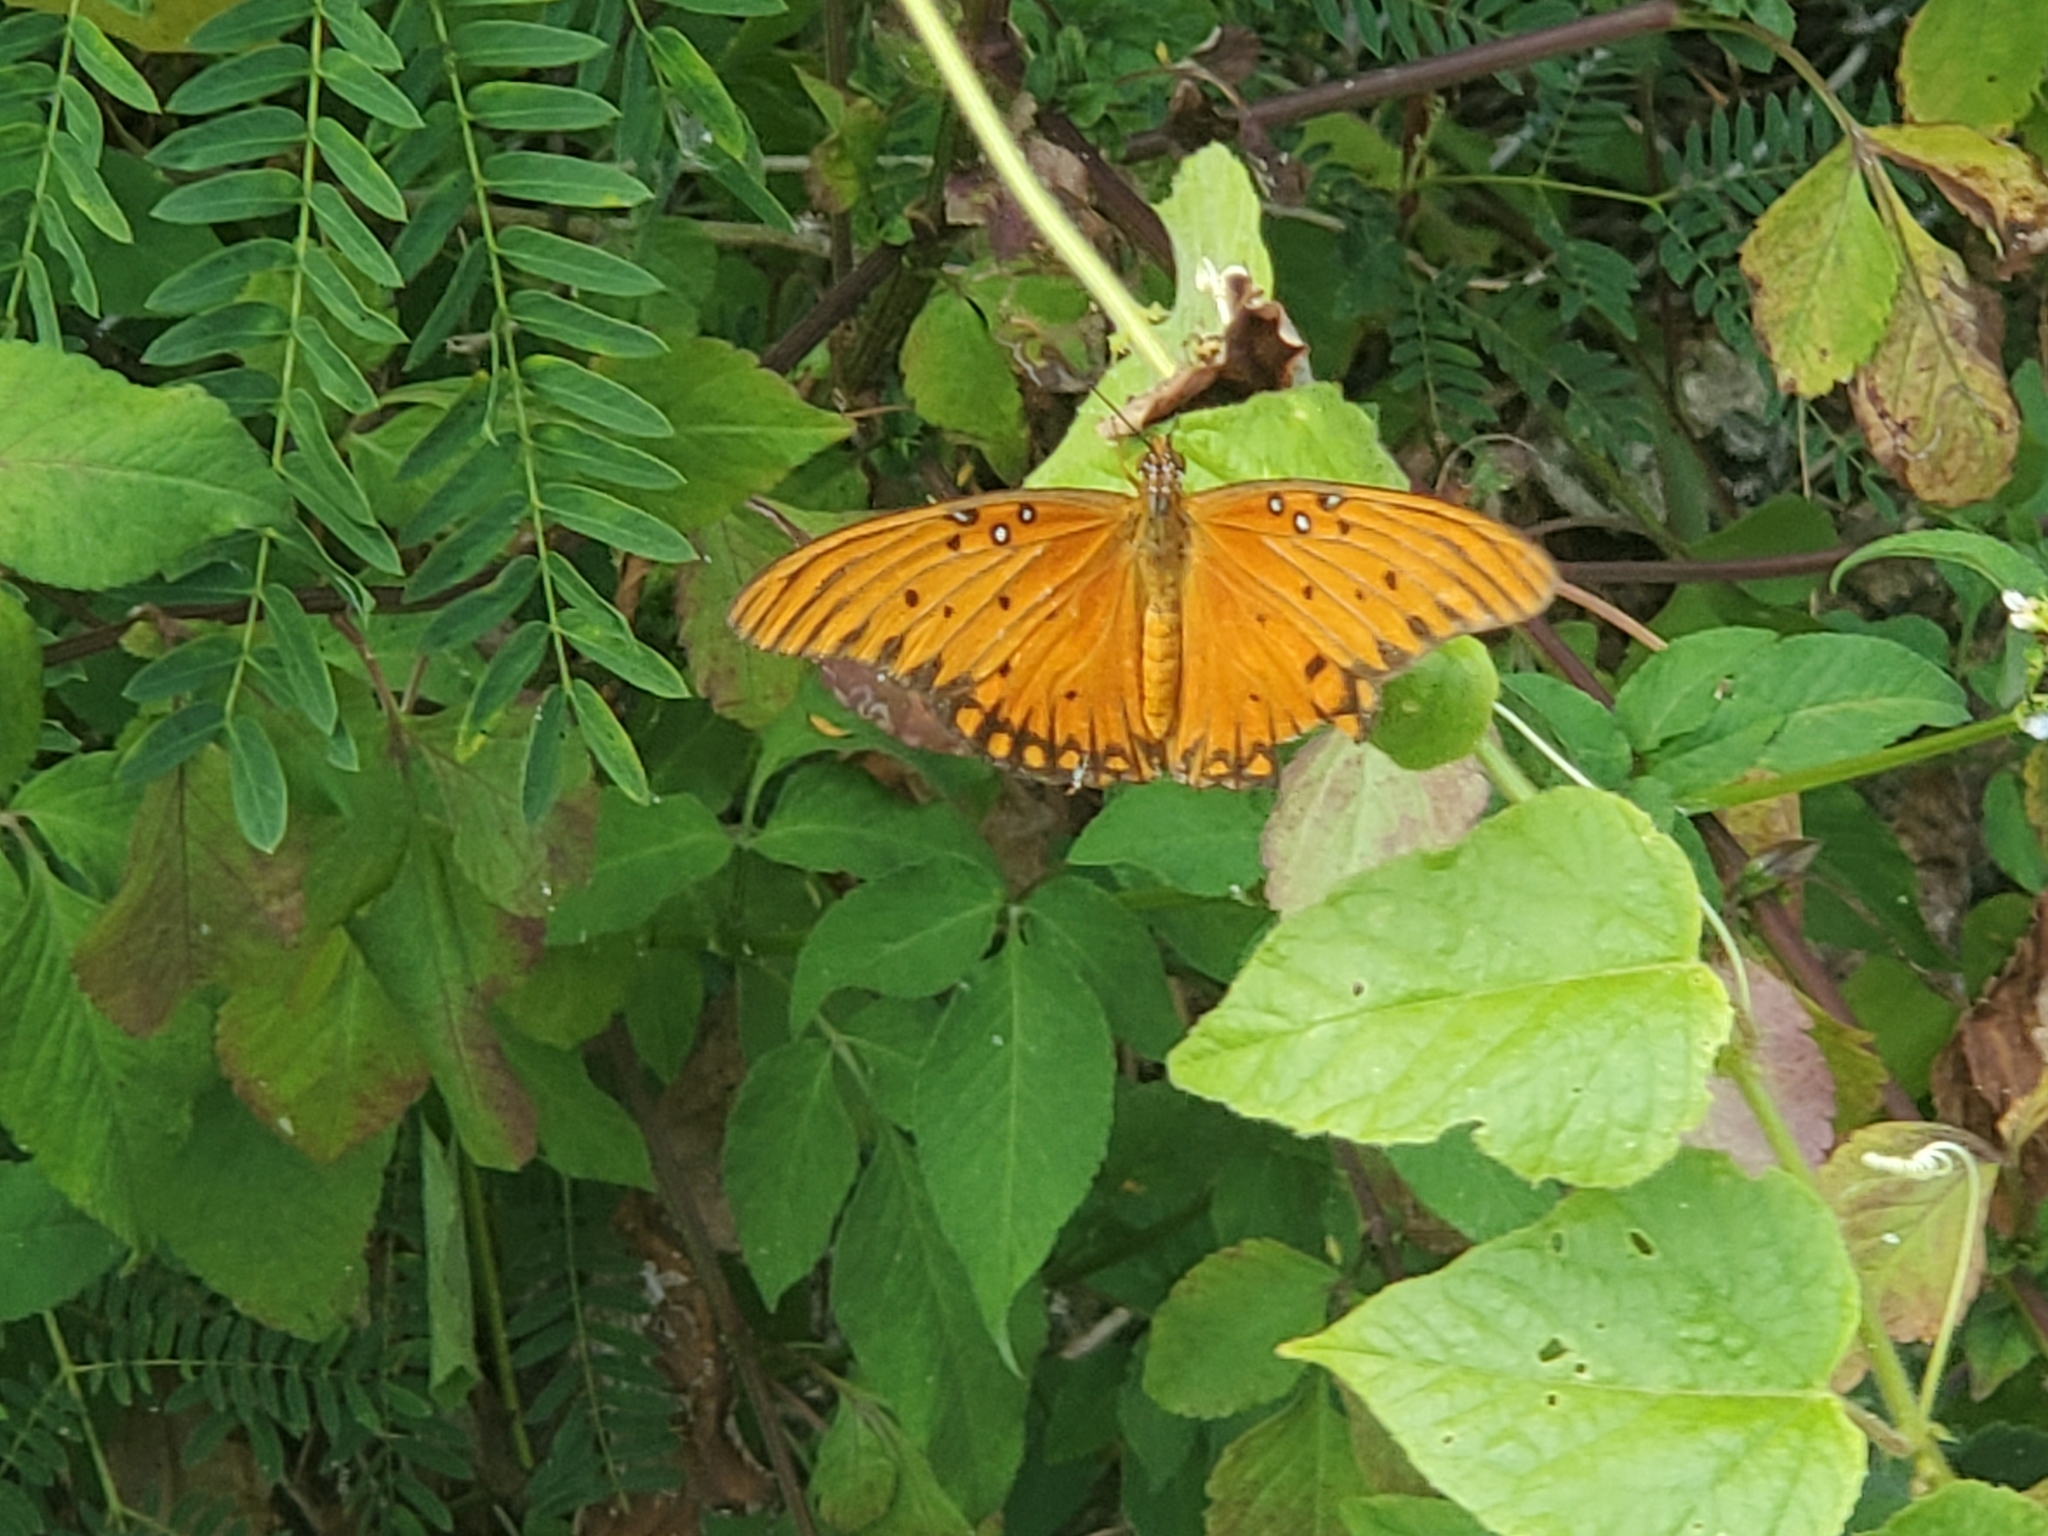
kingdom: Animalia
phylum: Arthropoda
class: Insecta
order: Lepidoptera
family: Nymphalidae
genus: Dione
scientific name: Dione vanillae
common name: Gulf fritillary
